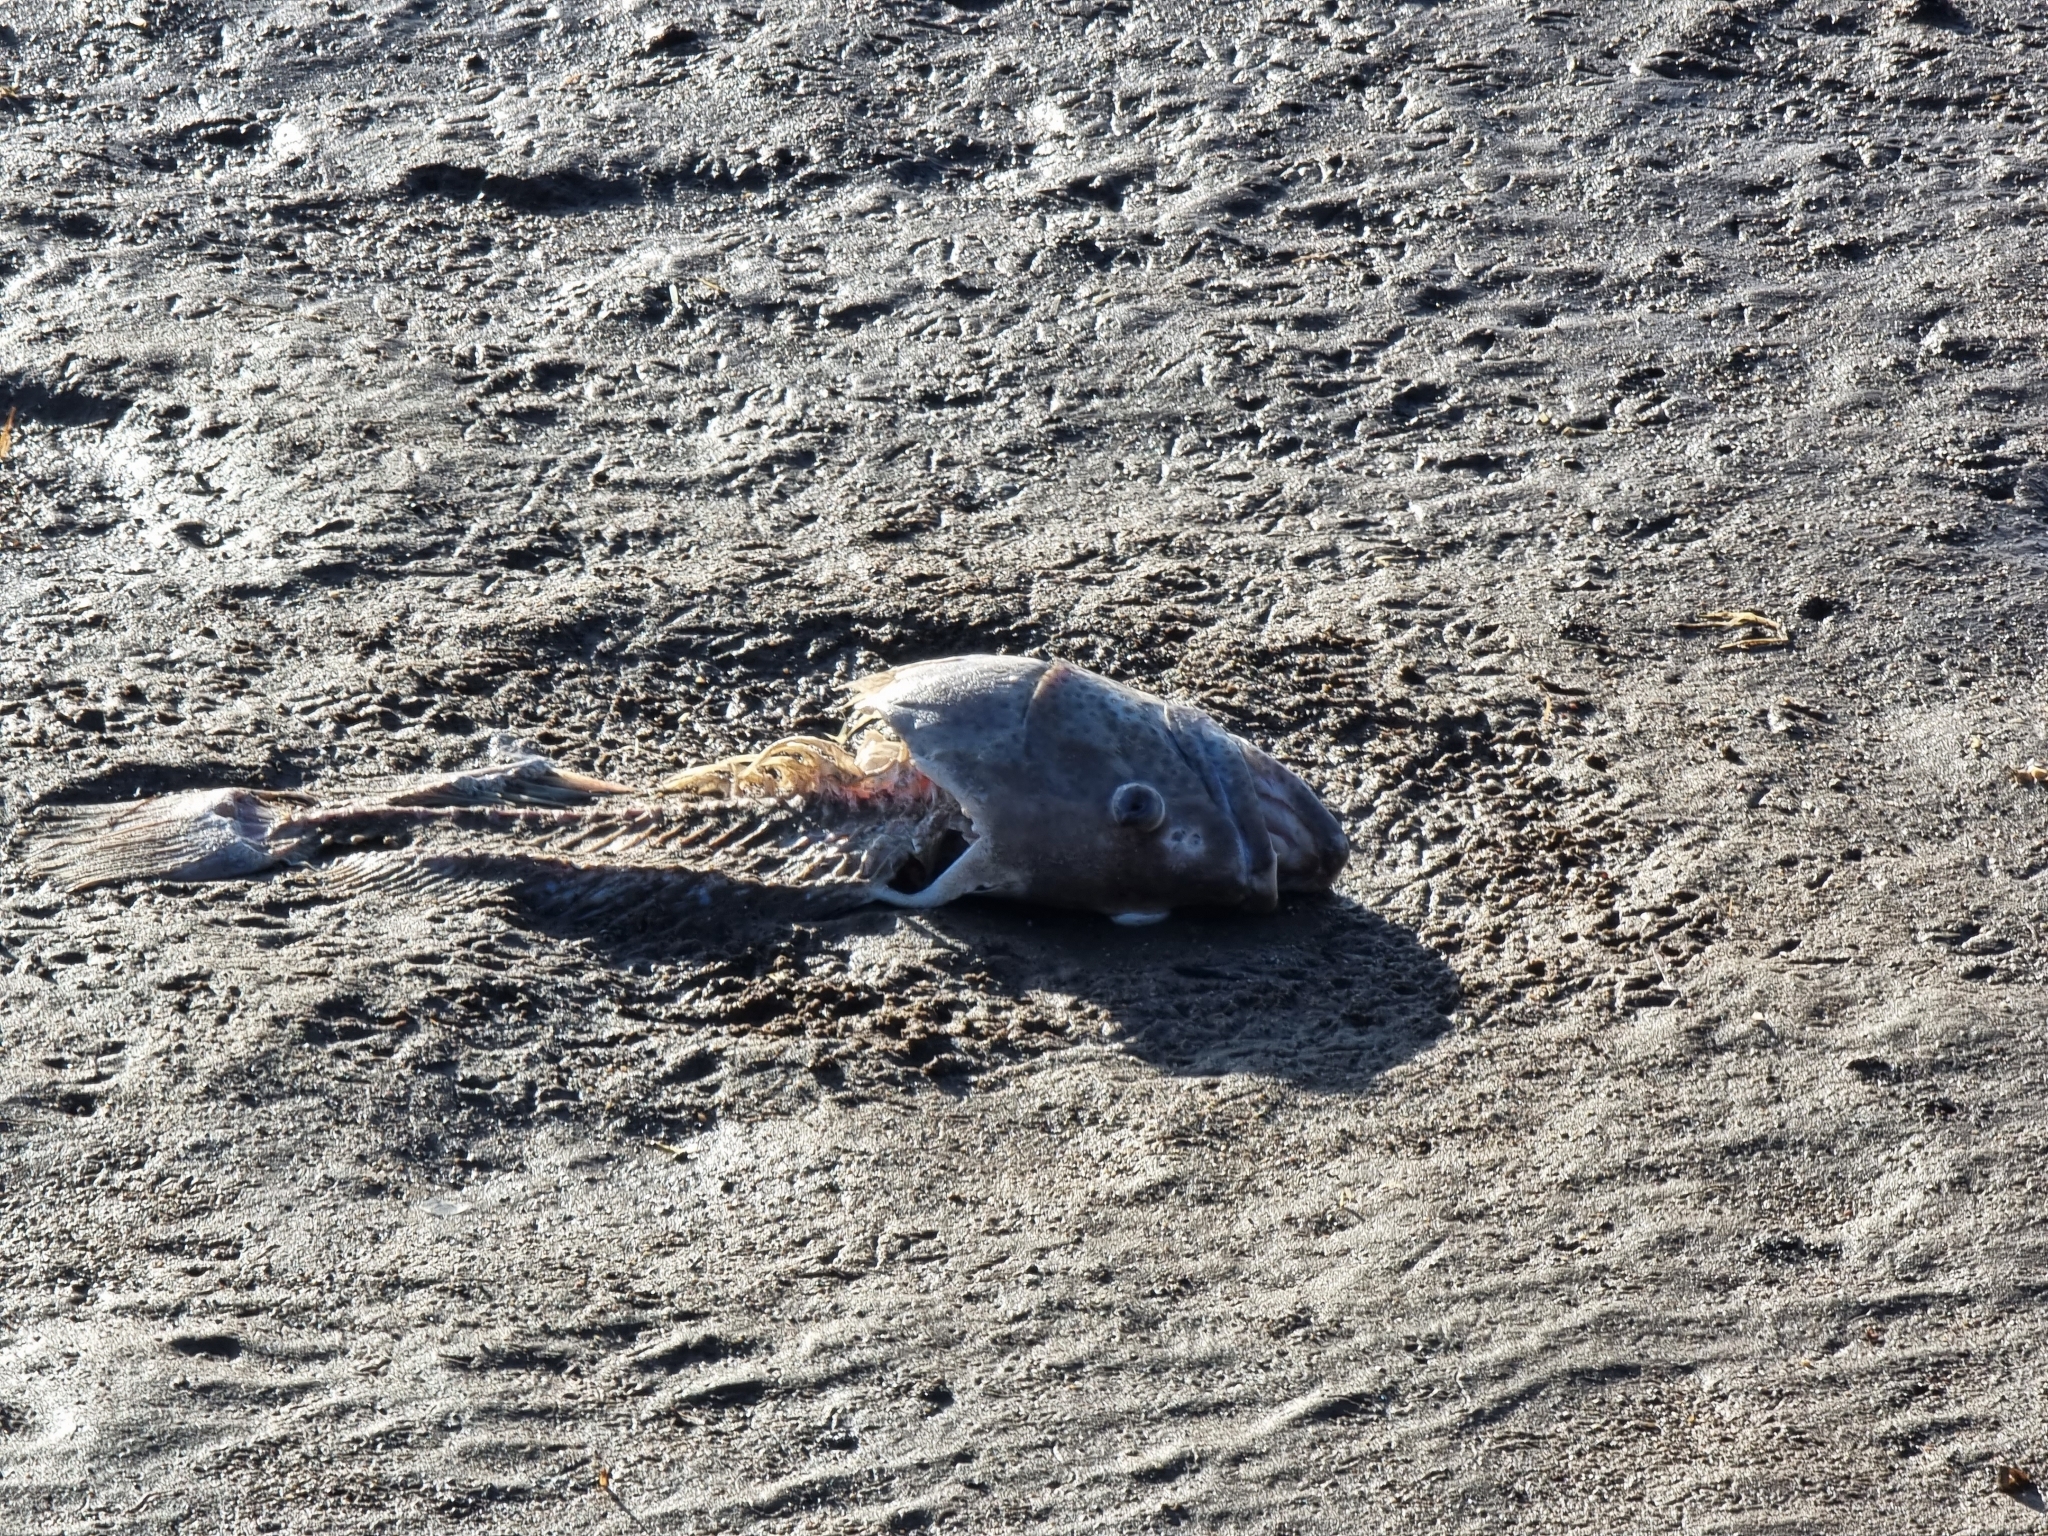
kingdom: Animalia
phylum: Chordata
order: Perciformes
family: Serranidae
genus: Epinephelus
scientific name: Epinephelus coioides
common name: Orange-spotted grouper
